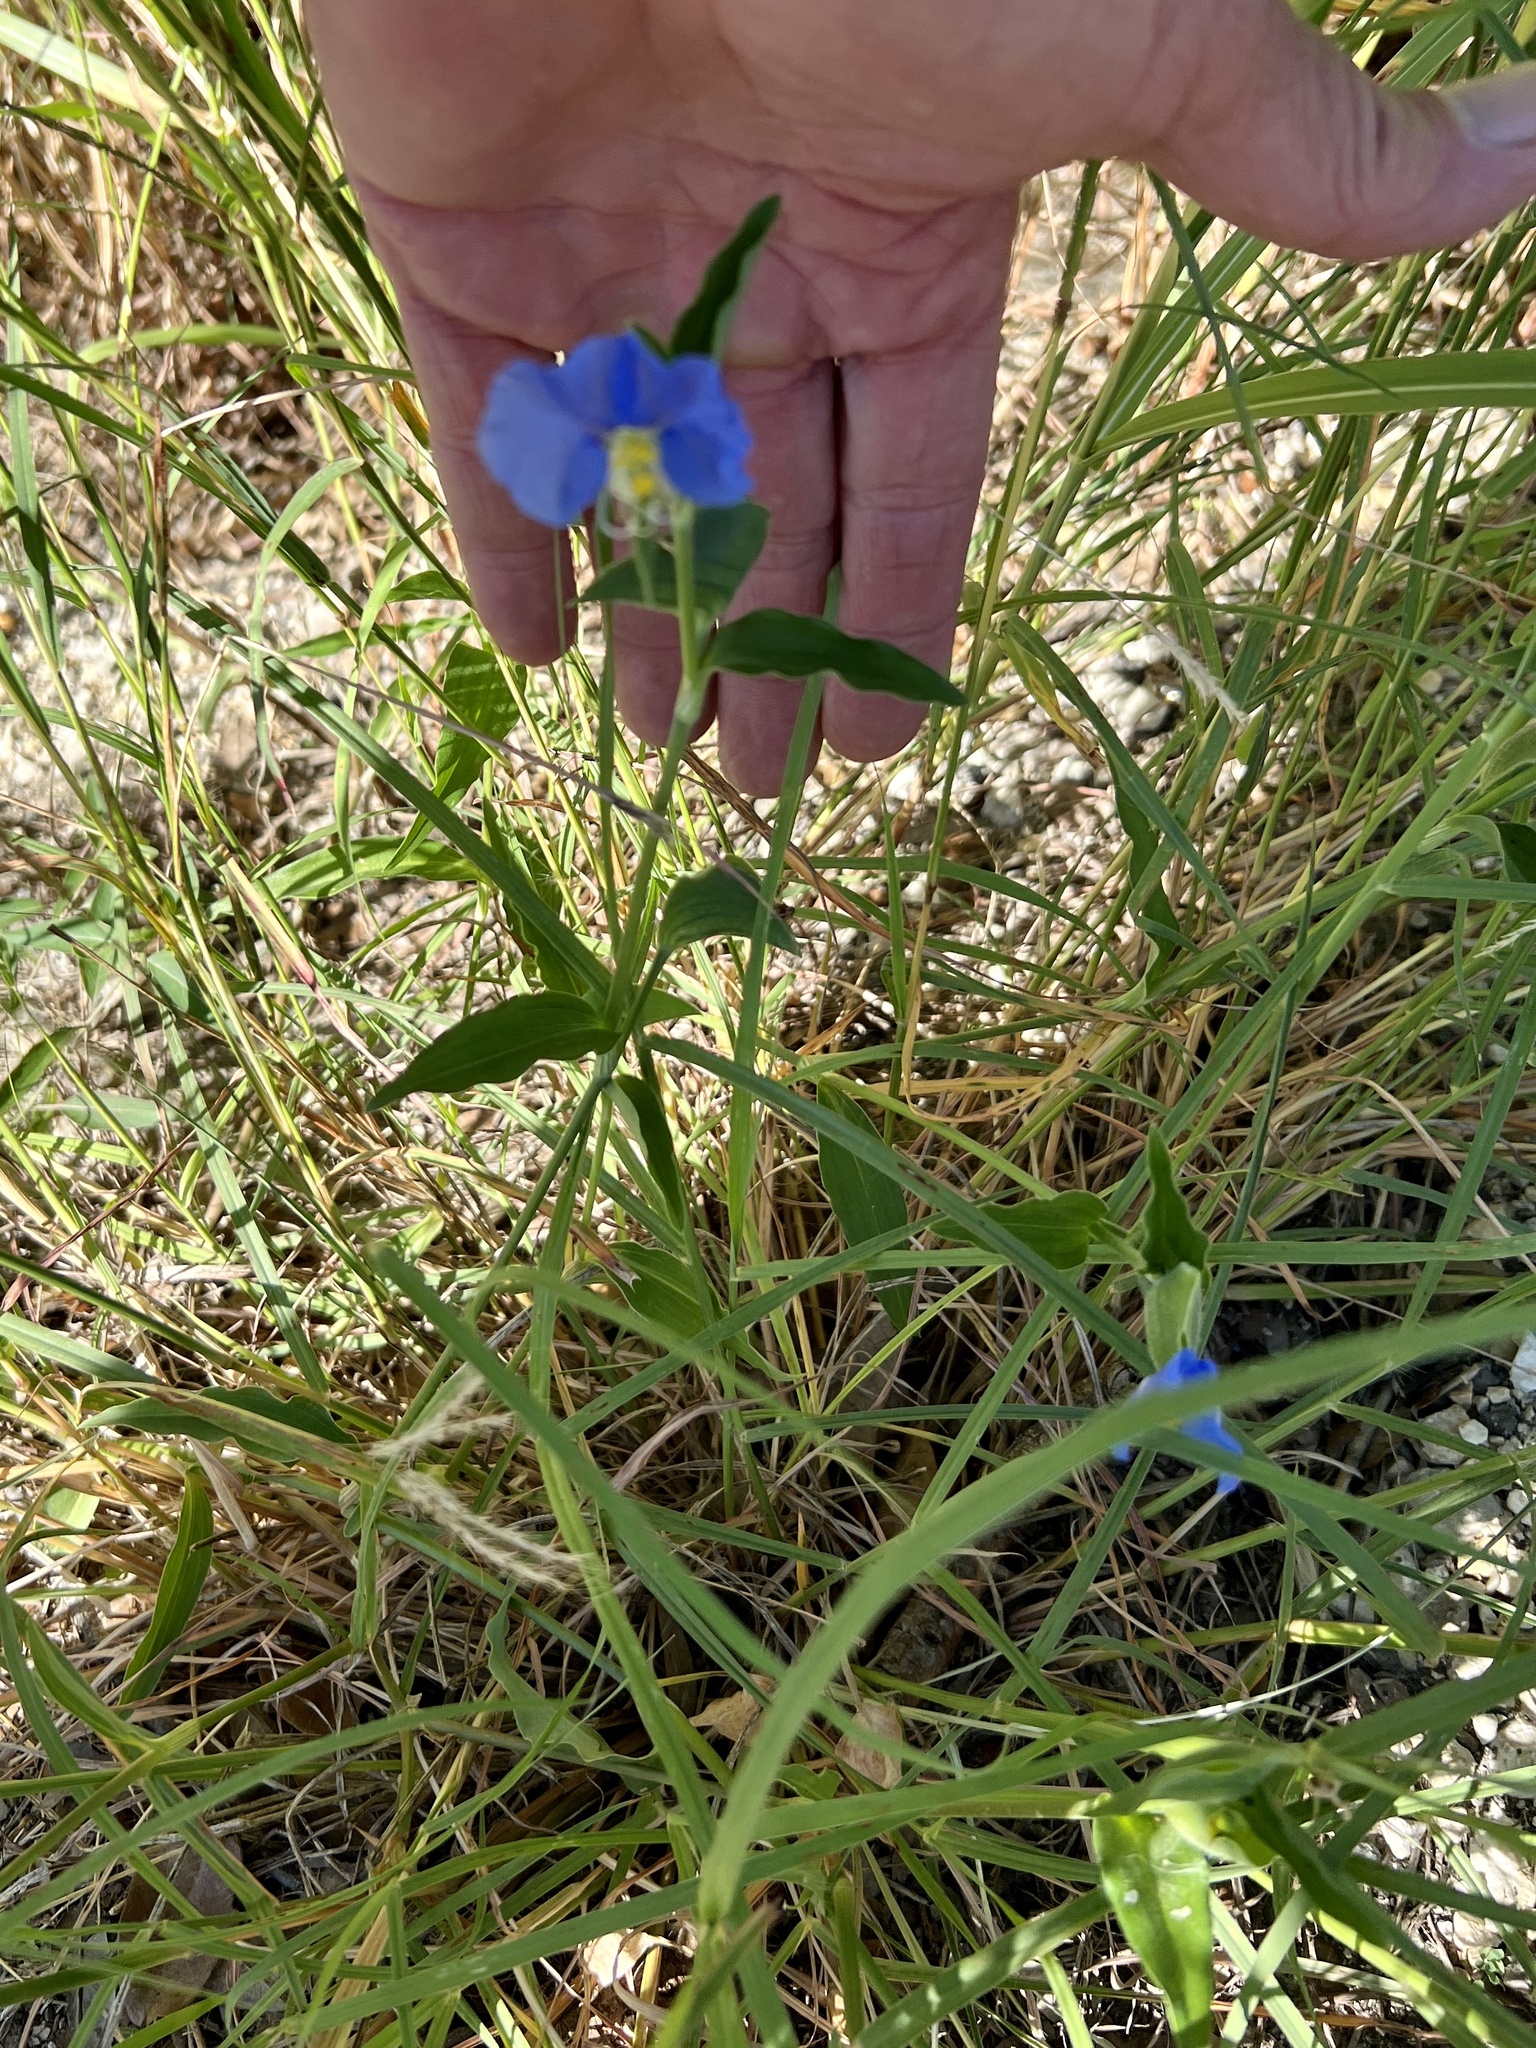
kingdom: Plantae
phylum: Tracheophyta
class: Liliopsida
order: Commelinales
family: Commelinaceae
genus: Commelina
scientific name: Commelina erecta
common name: Blousel blommetjie
